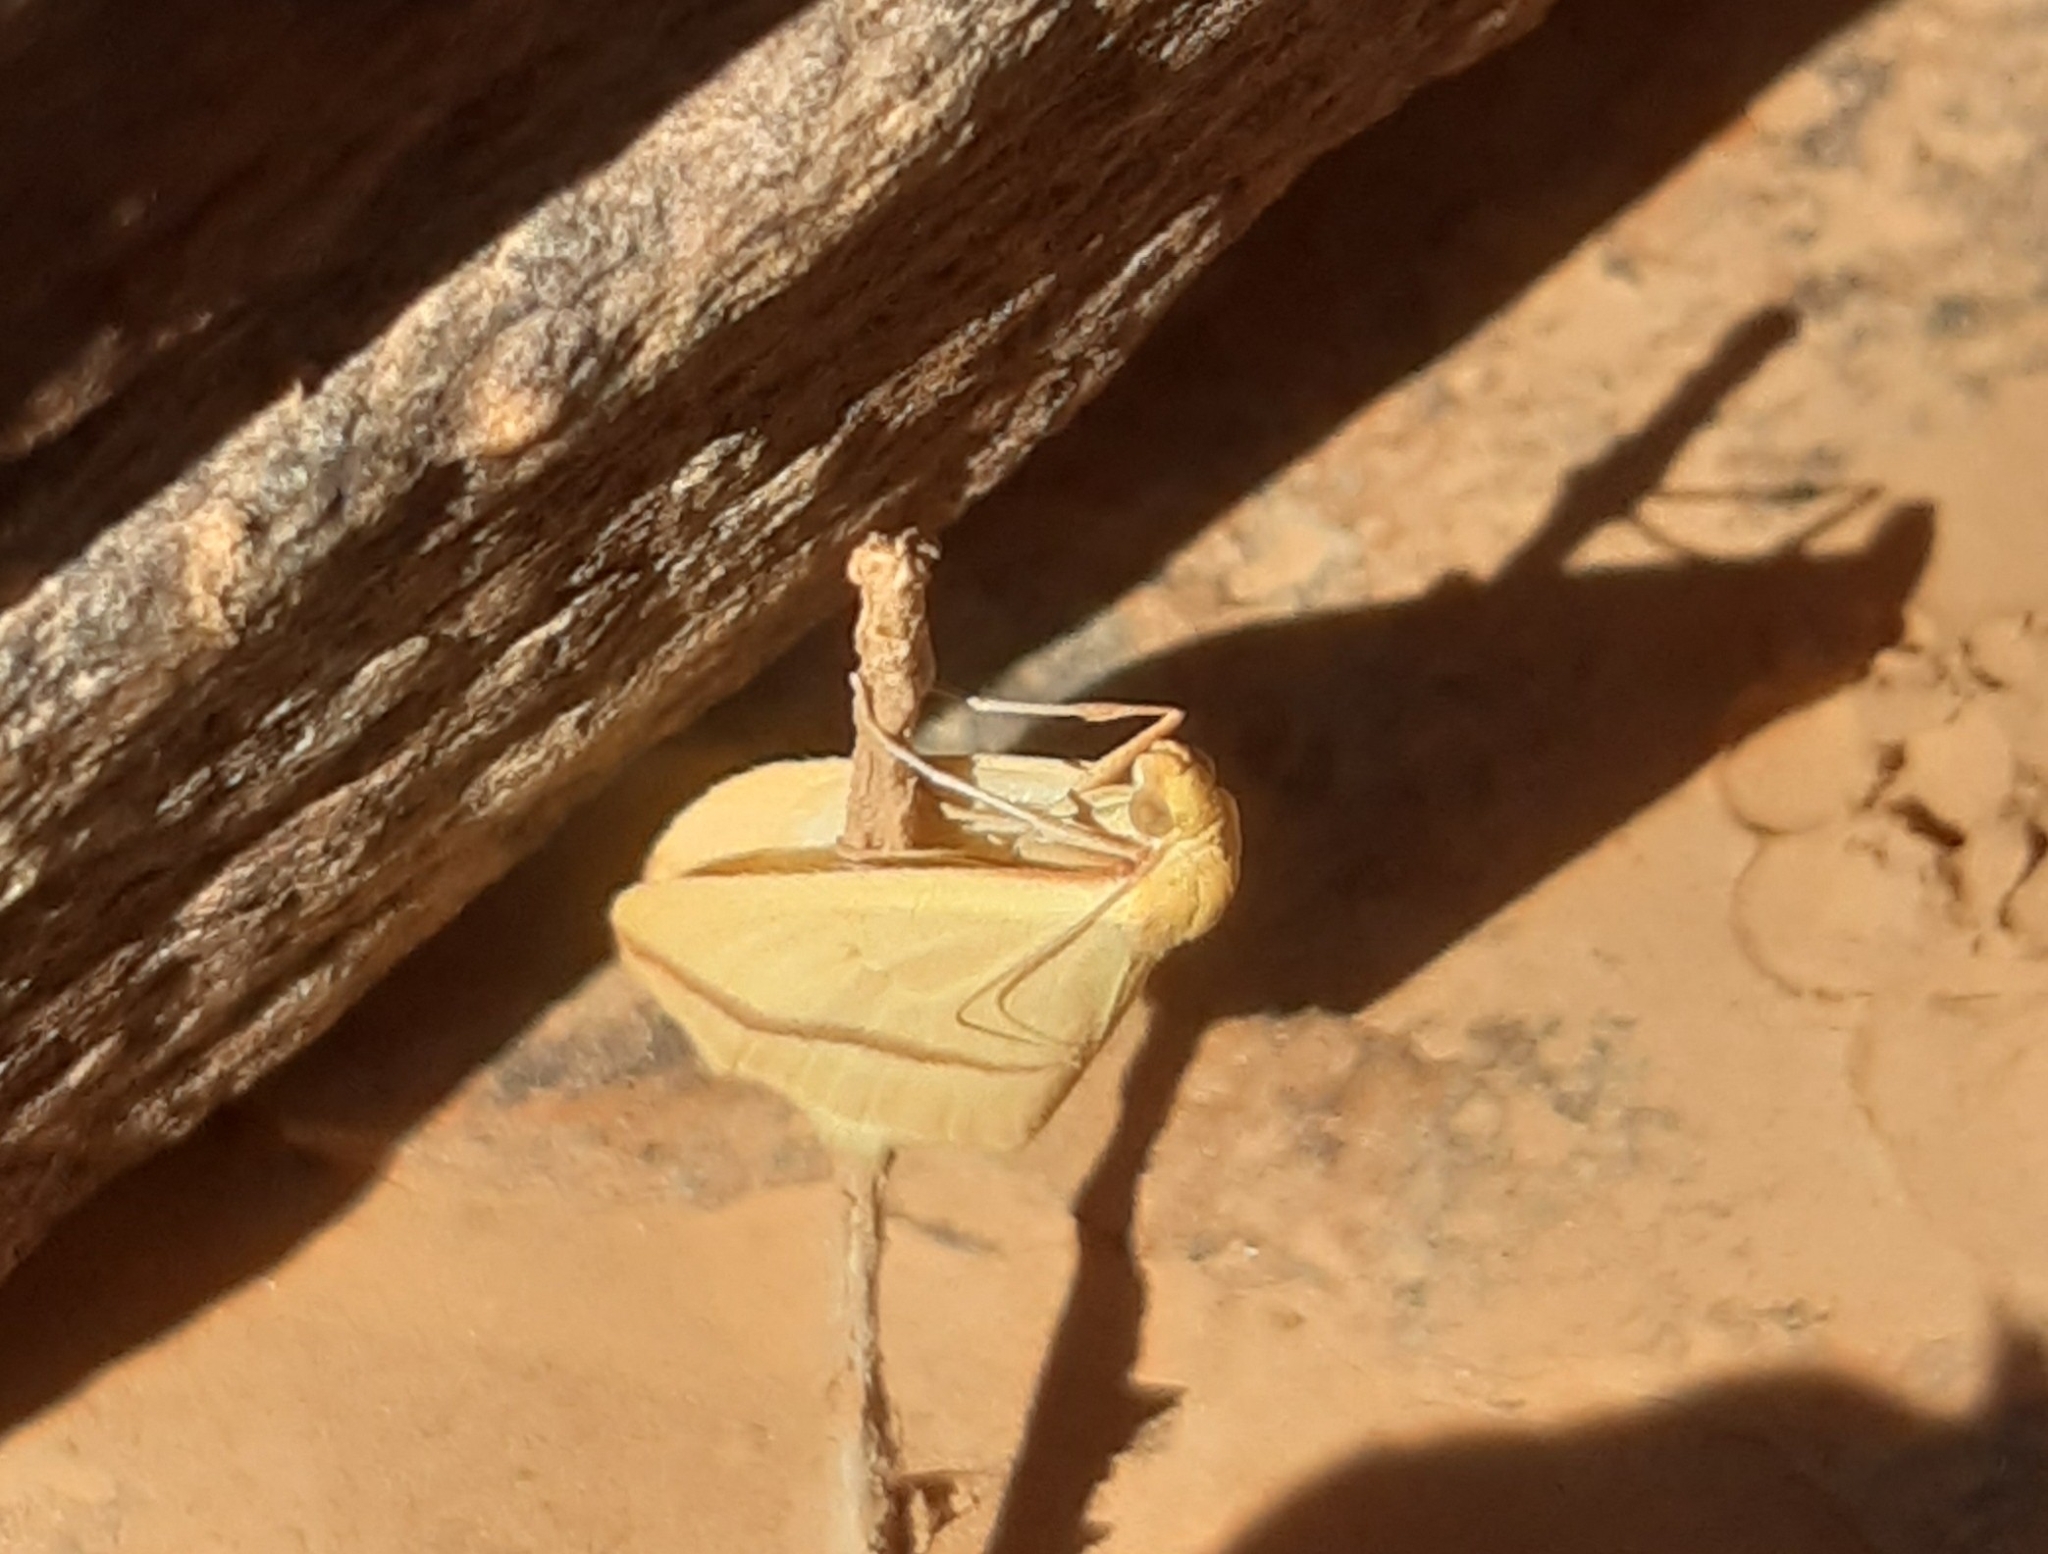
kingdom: Animalia
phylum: Arthropoda
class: Insecta
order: Lepidoptera
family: Geometridae
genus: Rhodometra
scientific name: Rhodometra sacraria
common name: Vestal
